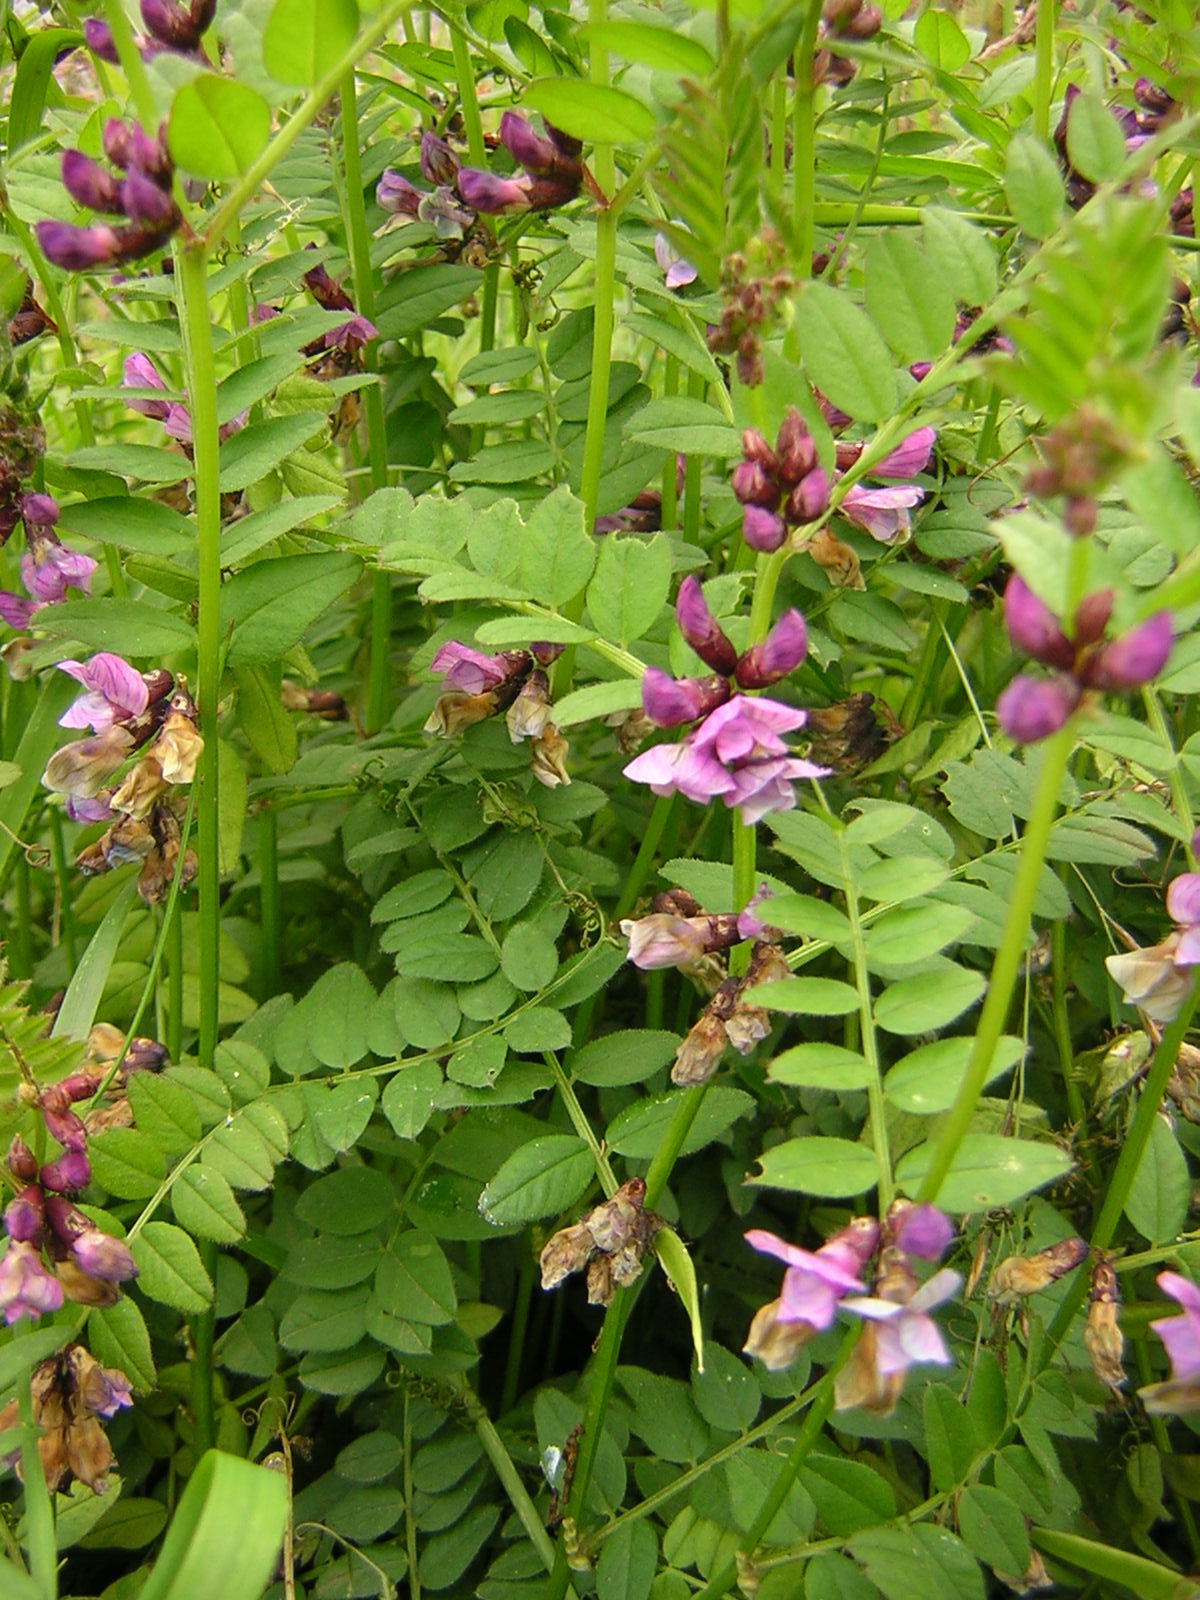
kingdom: Plantae
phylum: Tracheophyta
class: Magnoliopsida
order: Fabales
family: Fabaceae
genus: Vicia
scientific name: Vicia sepium
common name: Bush vetch
